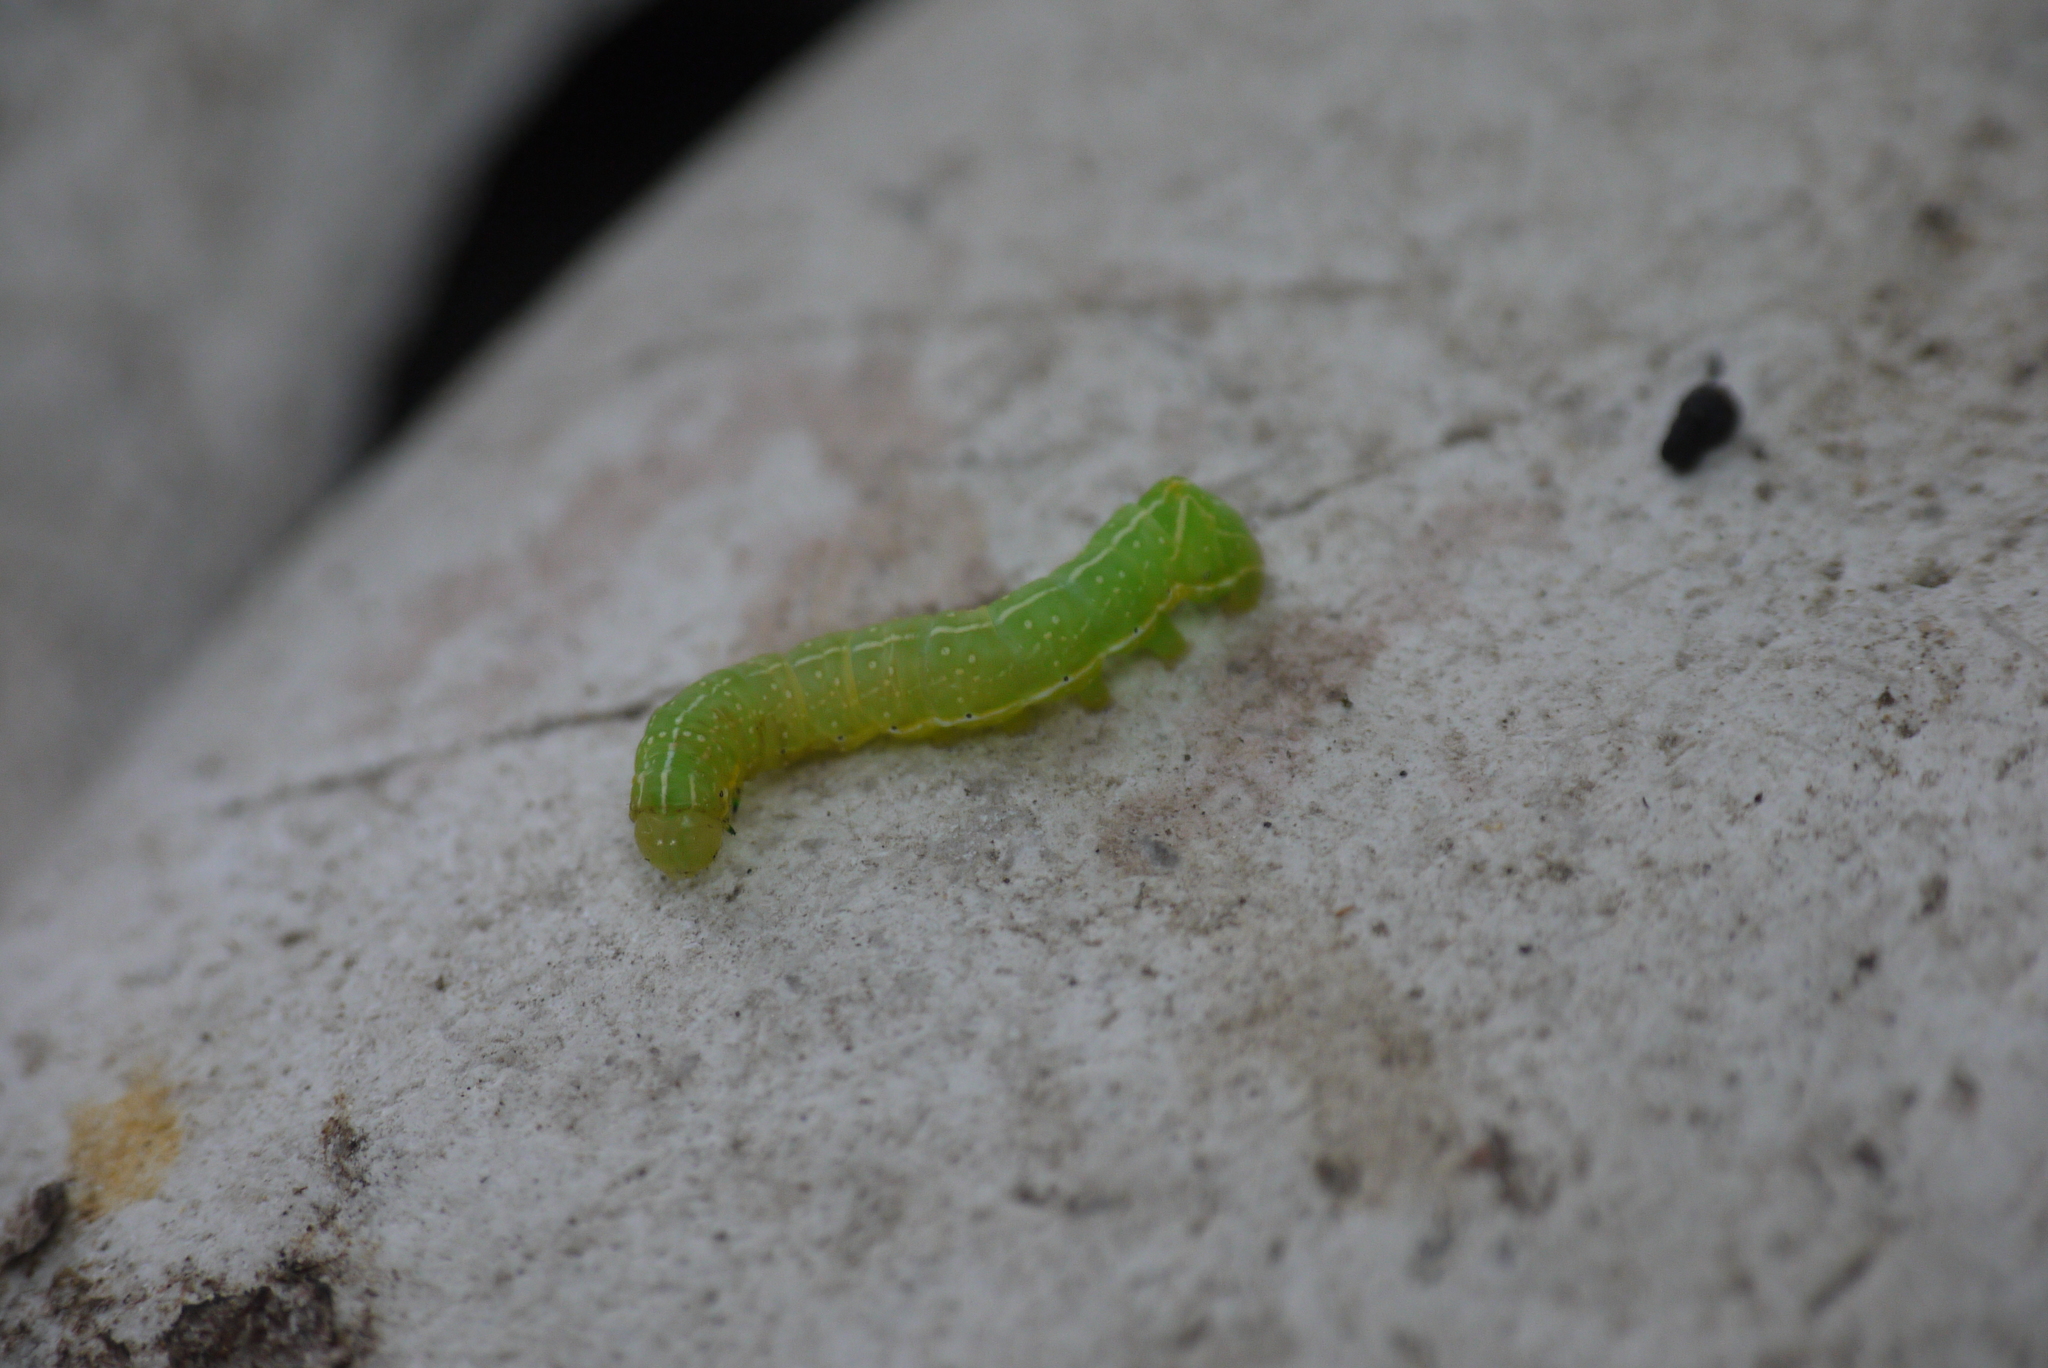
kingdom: Animalia
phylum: Arthropoda
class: Insecta
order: Lepidoptera
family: Noctuidae
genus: Amphipyra
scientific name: Amphipyra pyramidea
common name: Copper underwing
